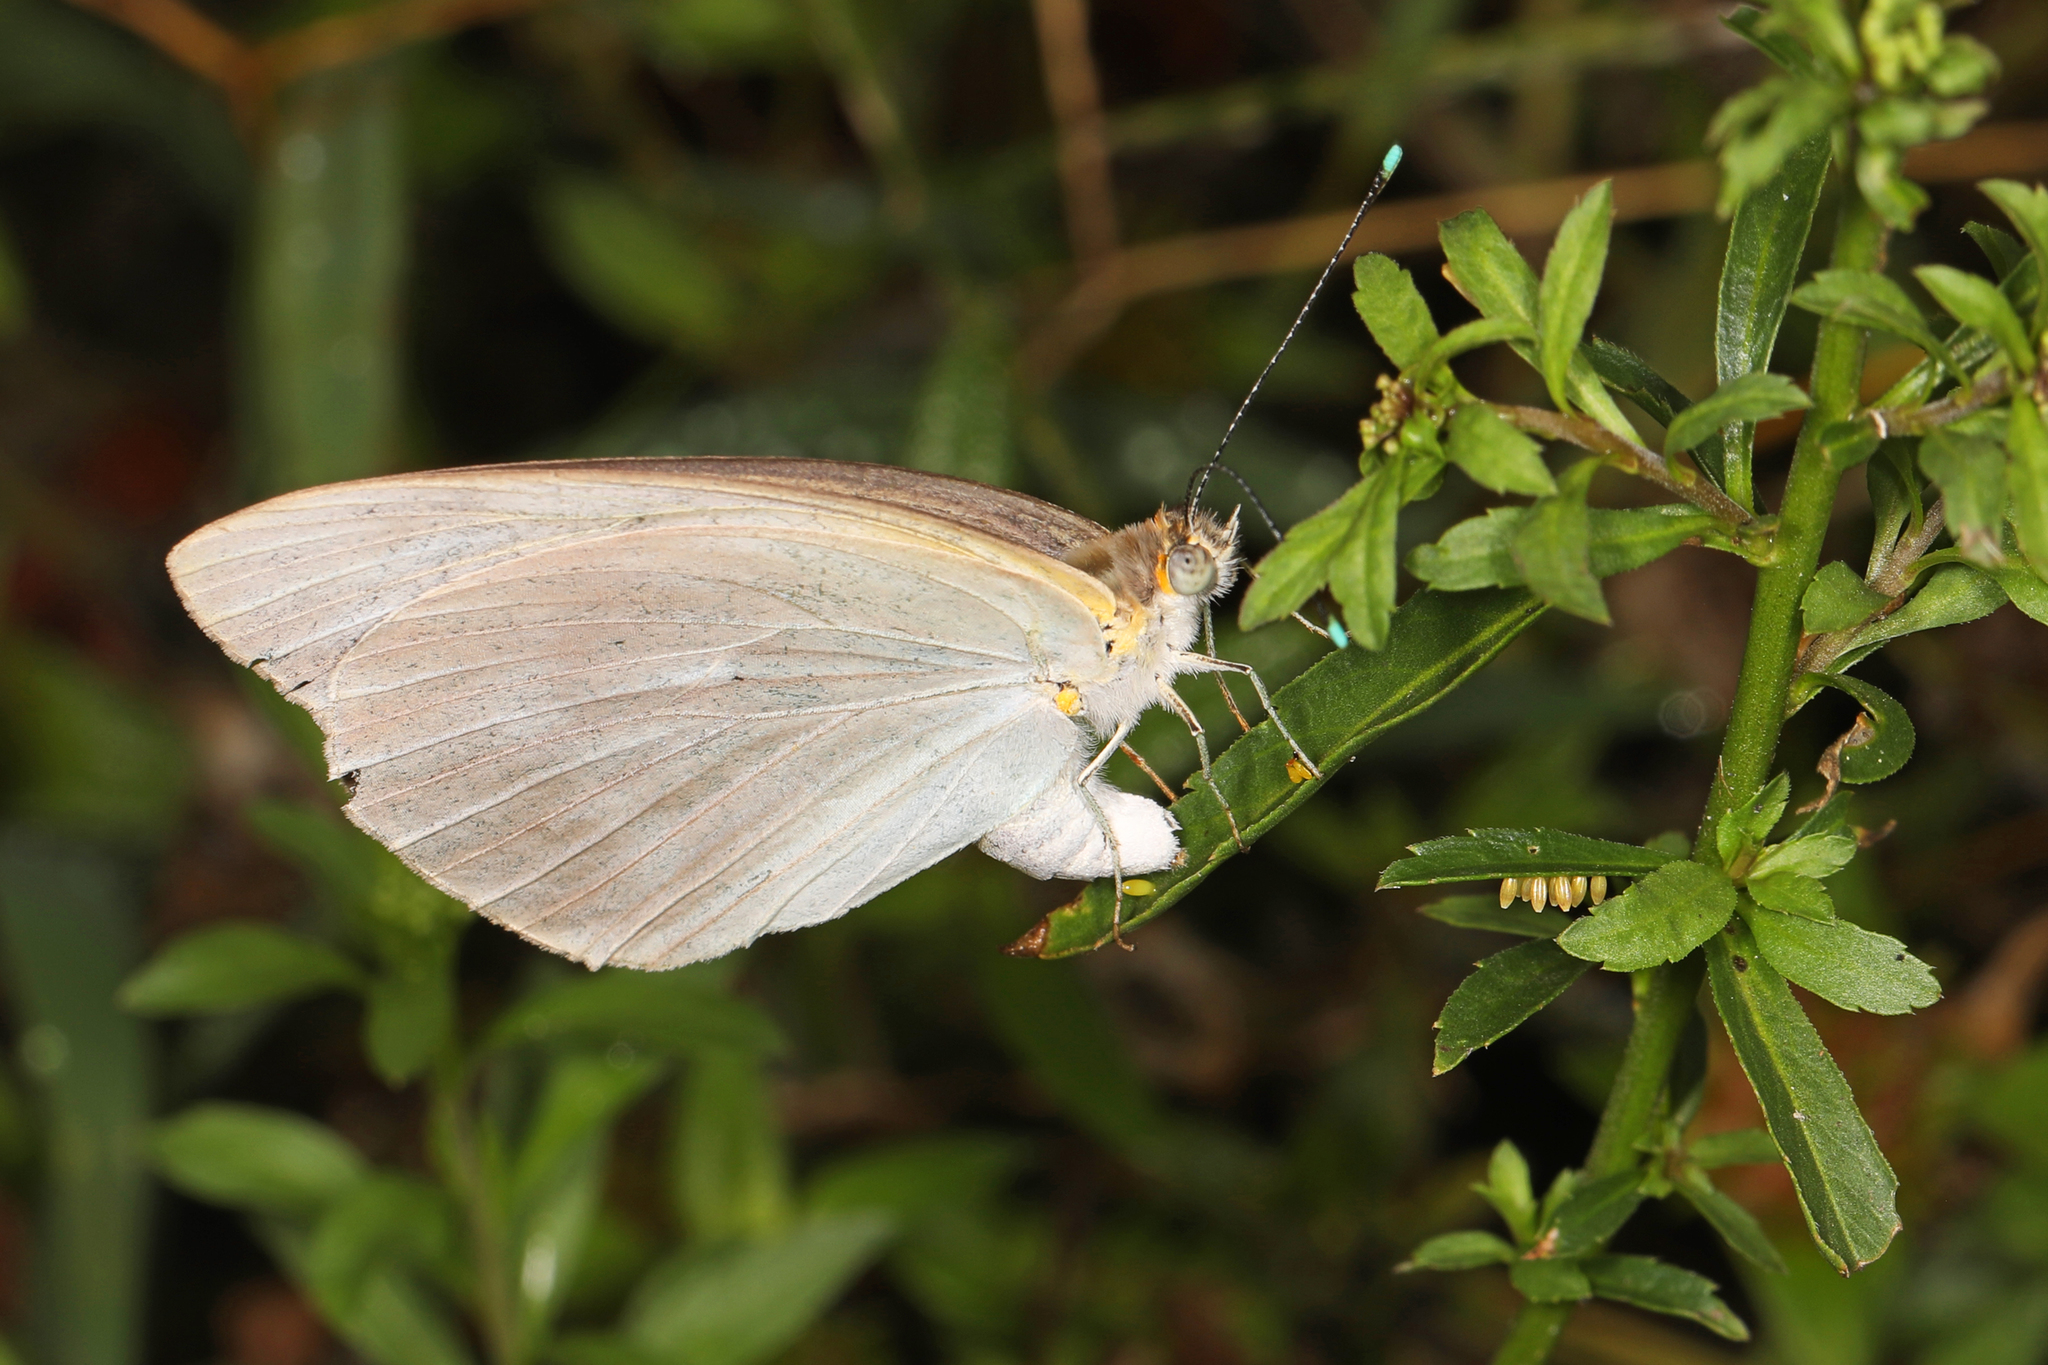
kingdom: Animalia
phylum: Arthropoda
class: Insecta
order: Lepidoptera
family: Pieridae
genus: Ascia
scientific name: Ascia monuste
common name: Great southern white
